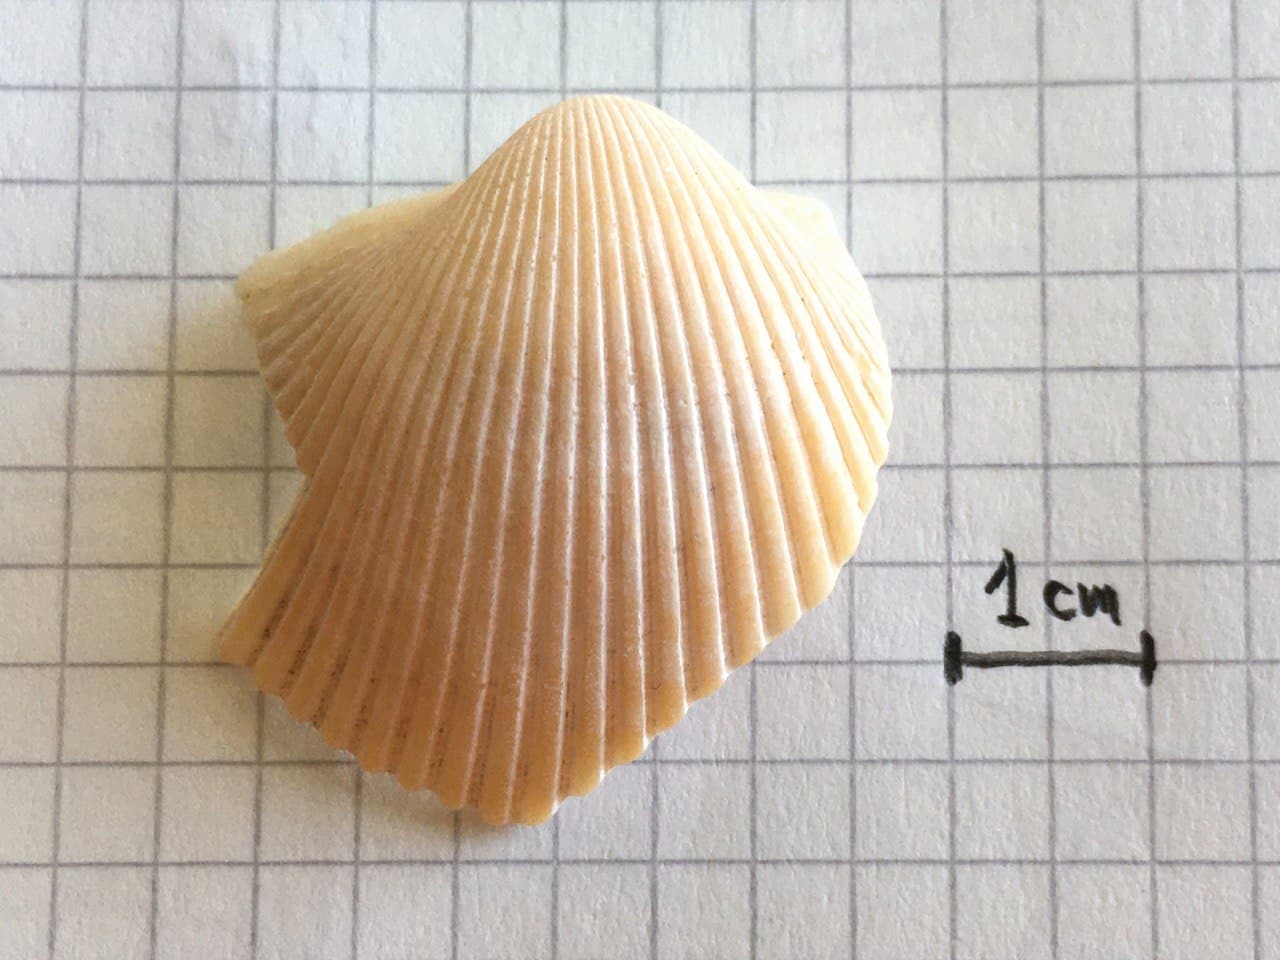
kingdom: Animalia
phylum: Mollusca
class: Bivalvia
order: Cardiida
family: Cardiidae
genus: Dallocardia
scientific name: Dallocardia delicatula
